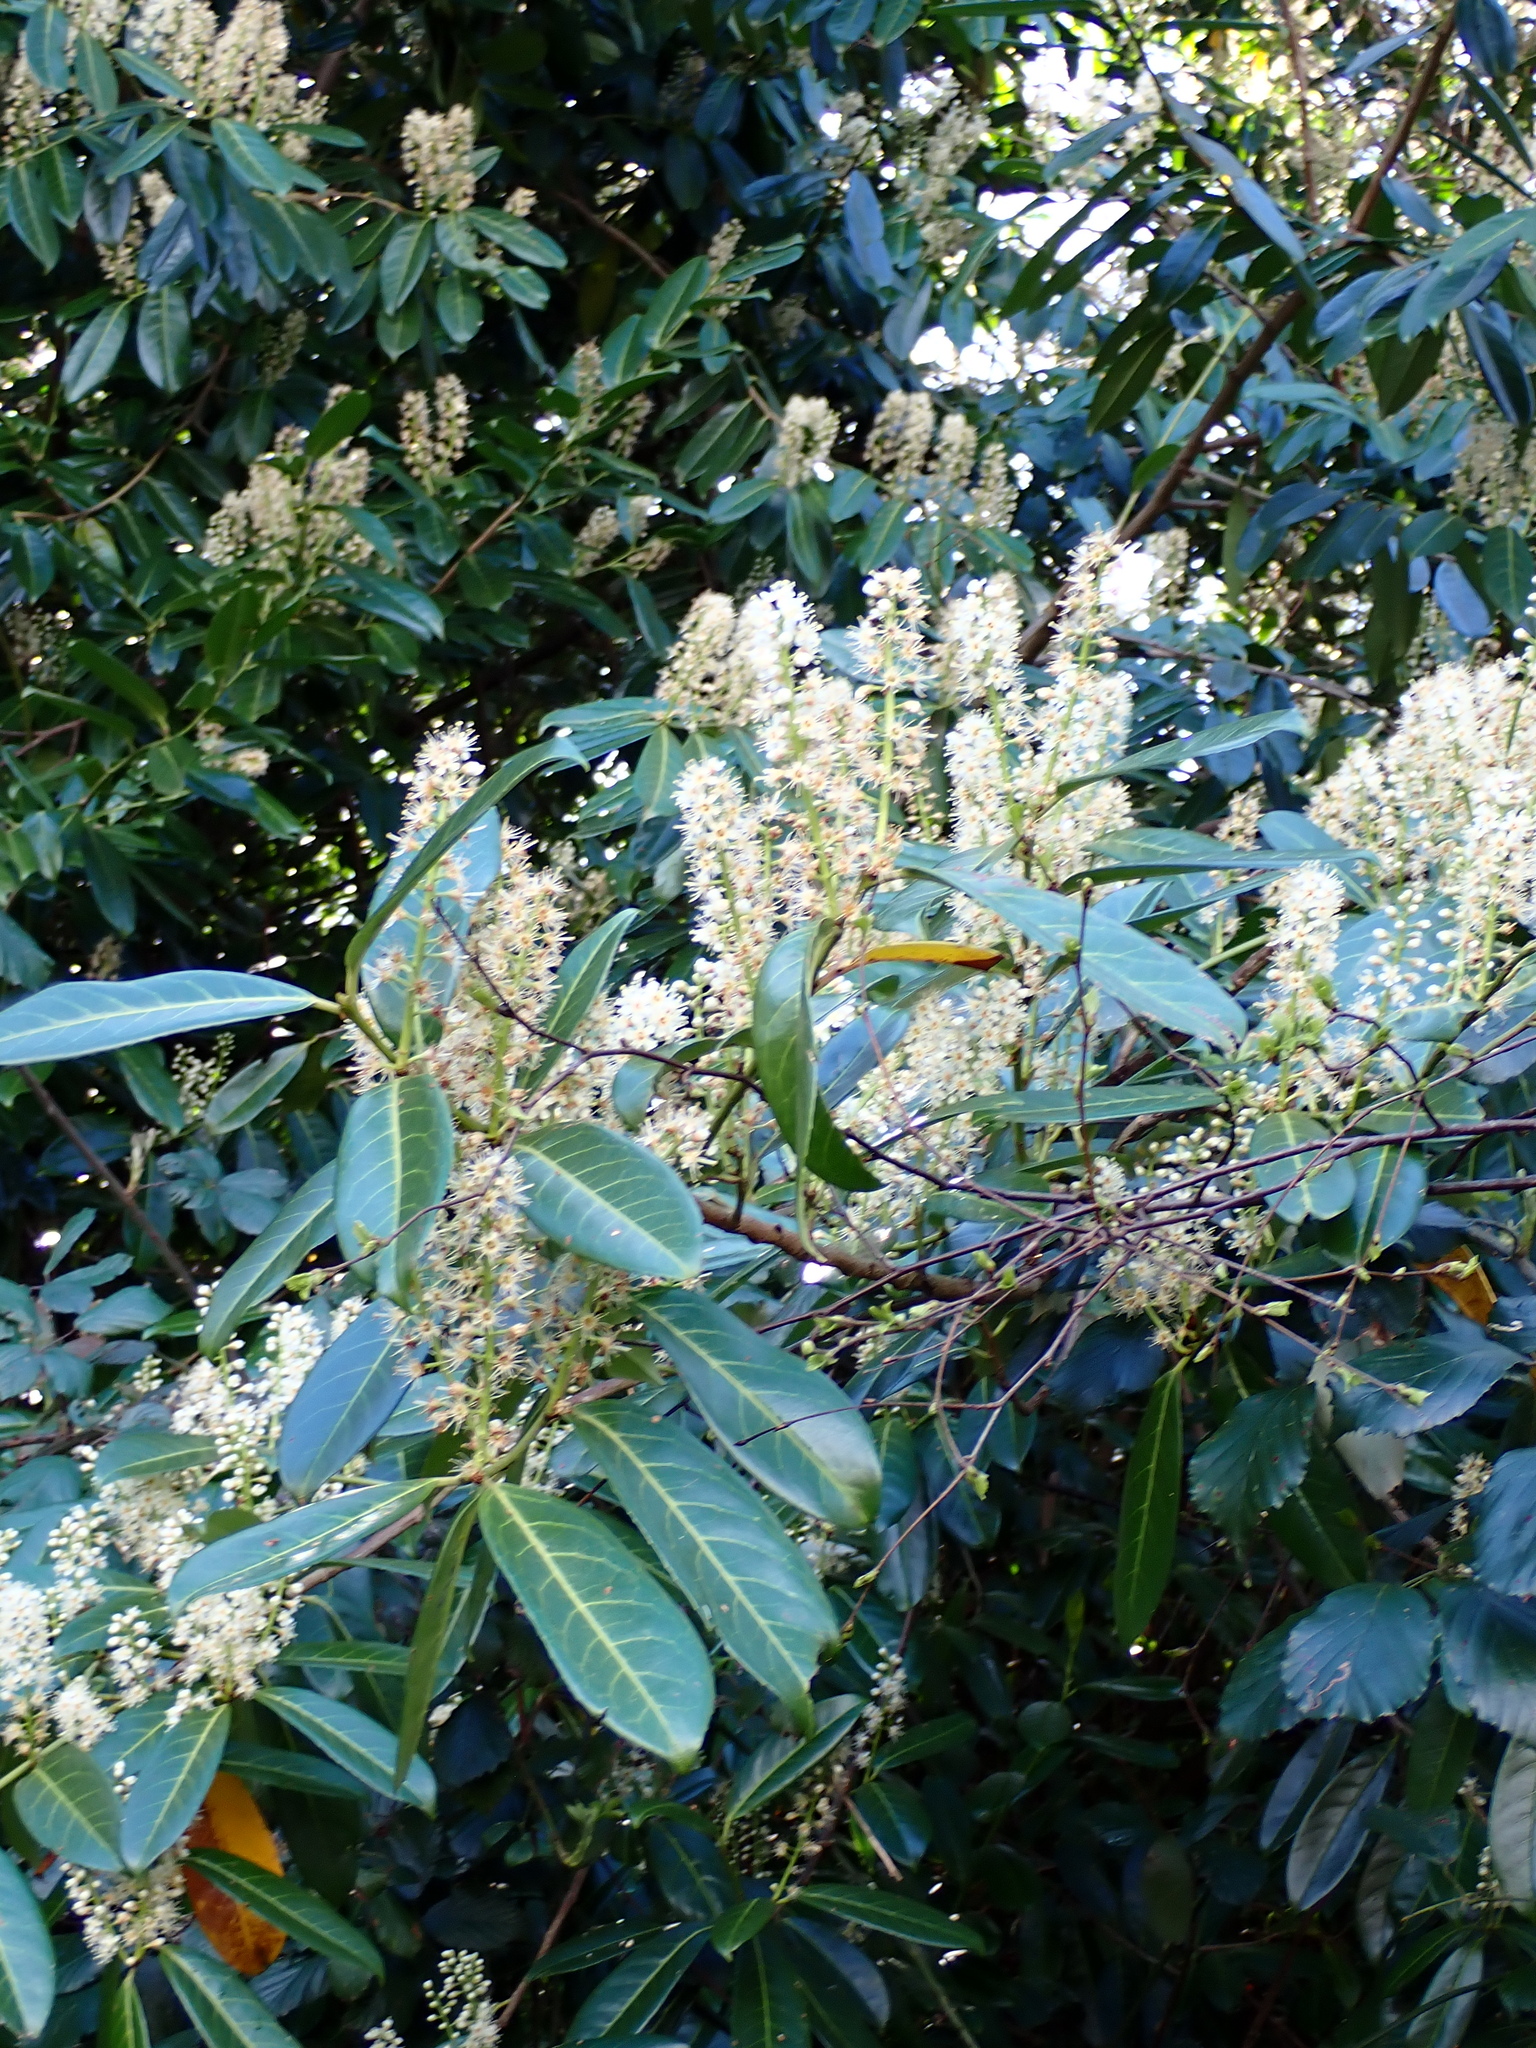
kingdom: Plantae
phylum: Tracheophyta
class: Magnoliopsida
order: Rosales
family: Rosaceae
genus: Prunus
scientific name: Prunus laurocerasus
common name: Cherry laurel
